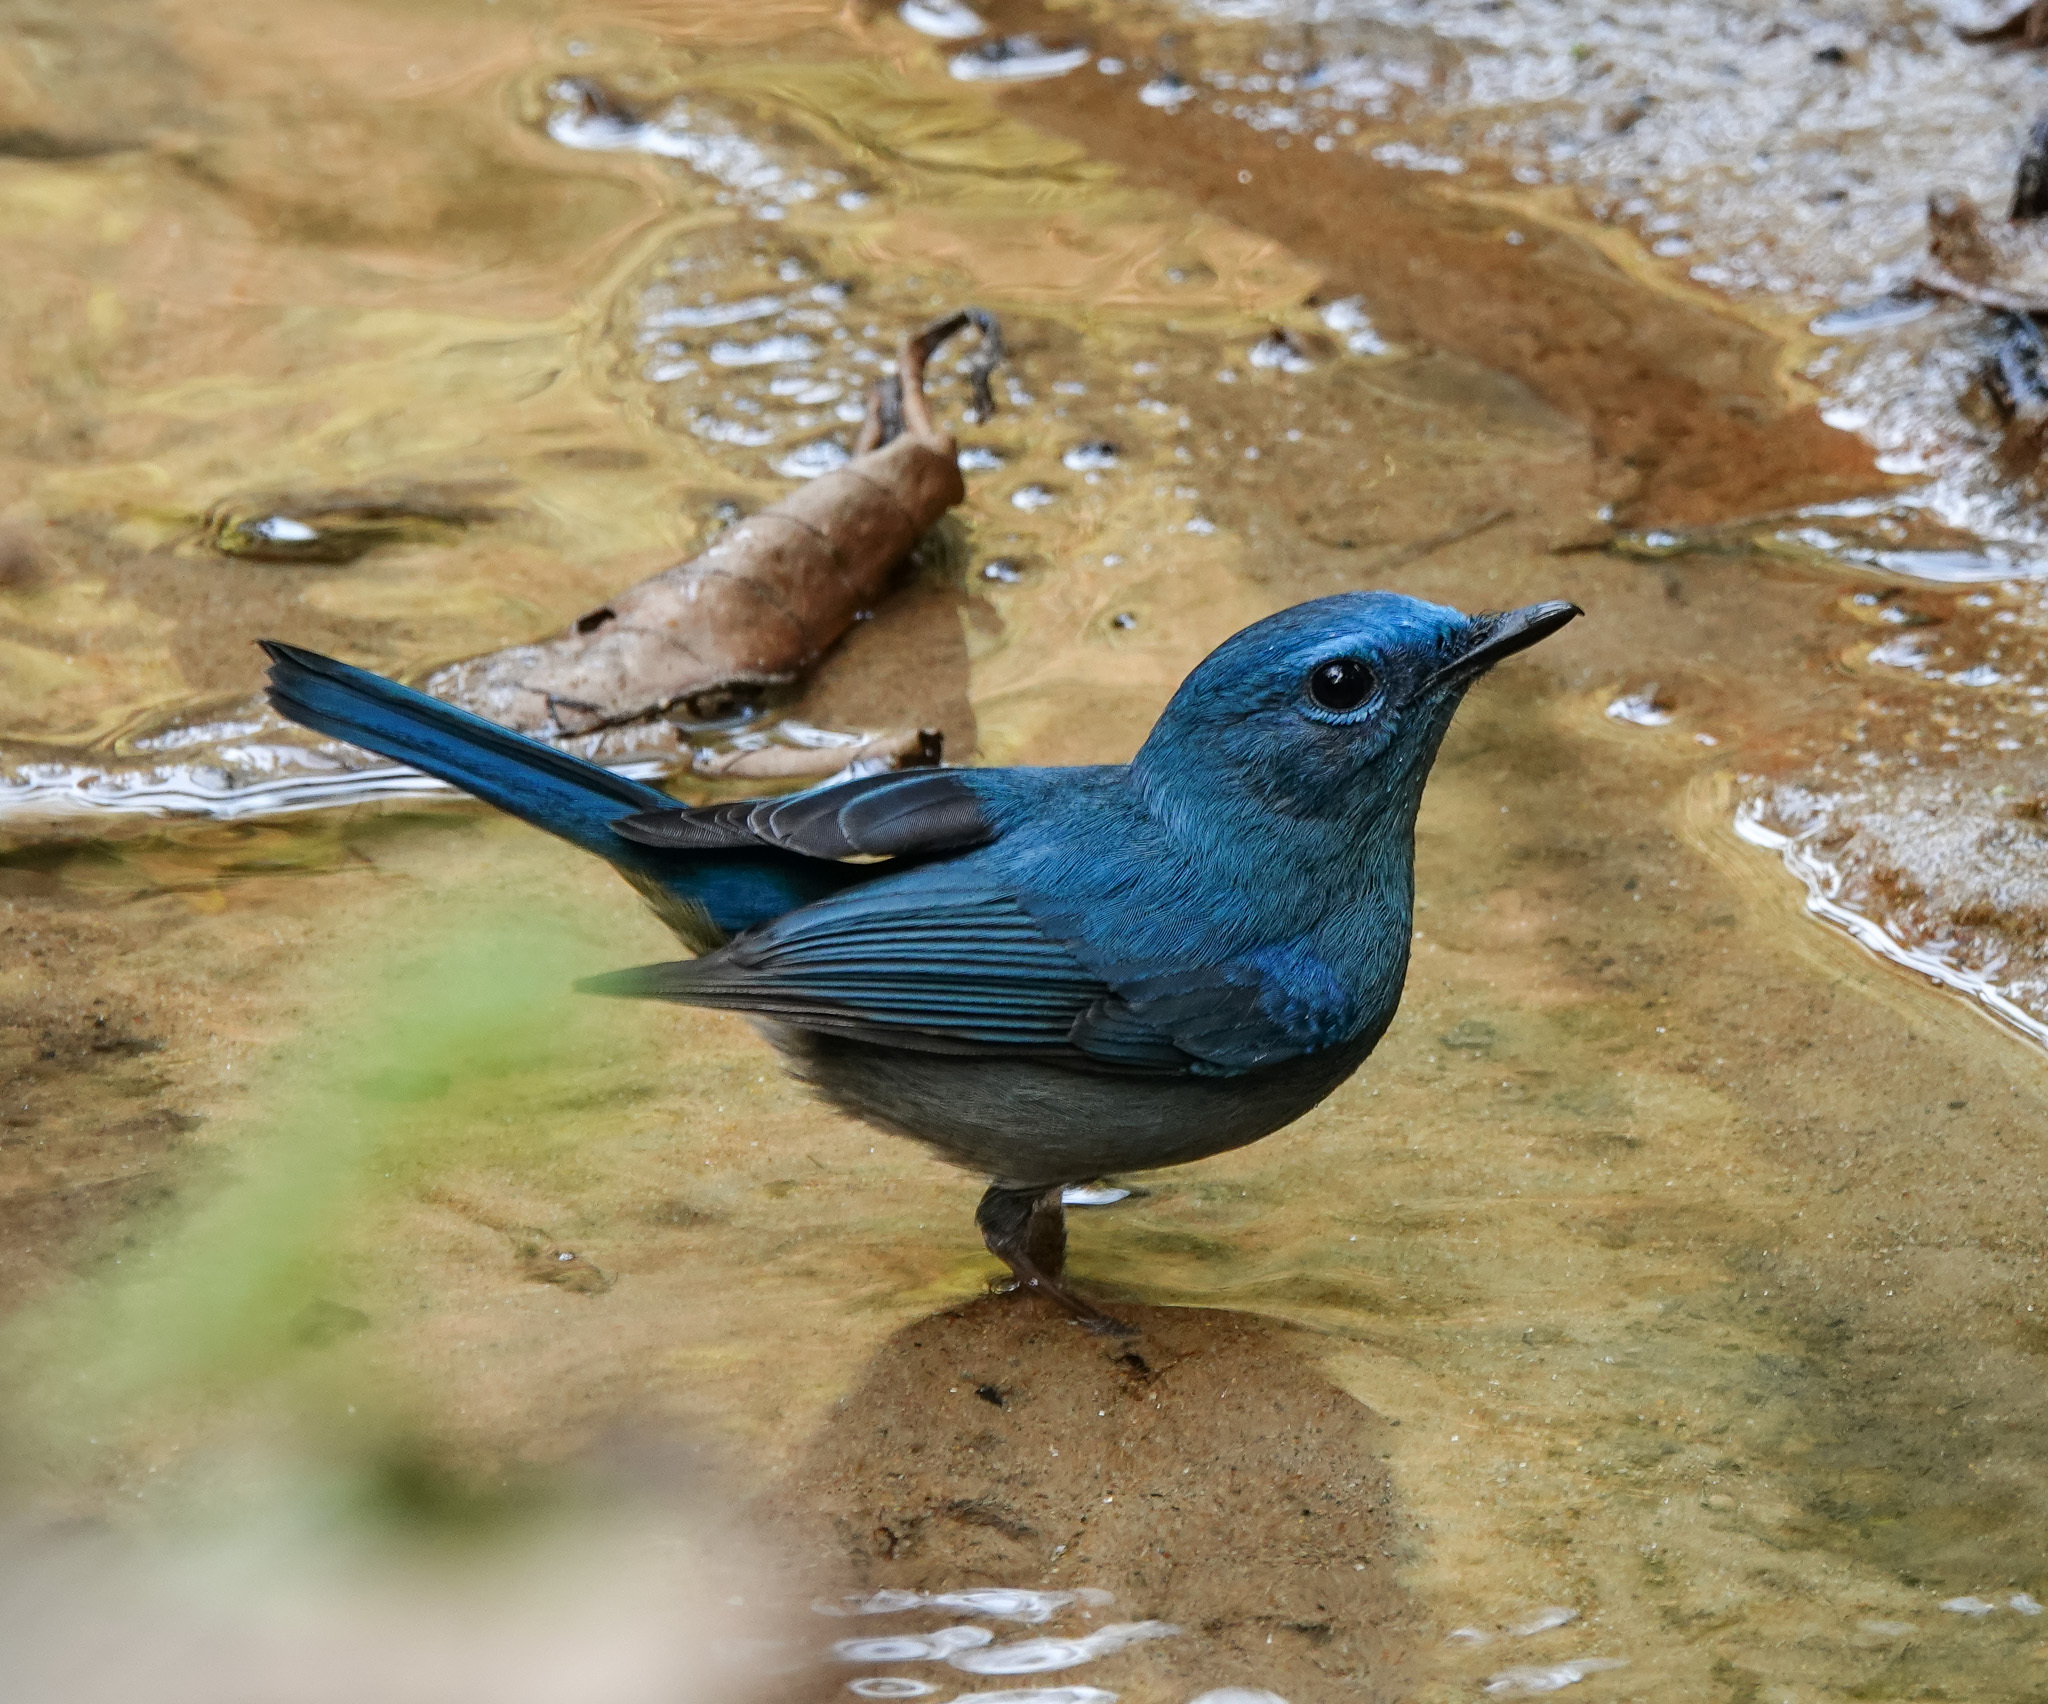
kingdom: Animalia
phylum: Chordata
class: Aves
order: Passeriformes
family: Muscicapidae
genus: Cyornis
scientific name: Cyornis unicolor
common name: Pale blue flycatcher
